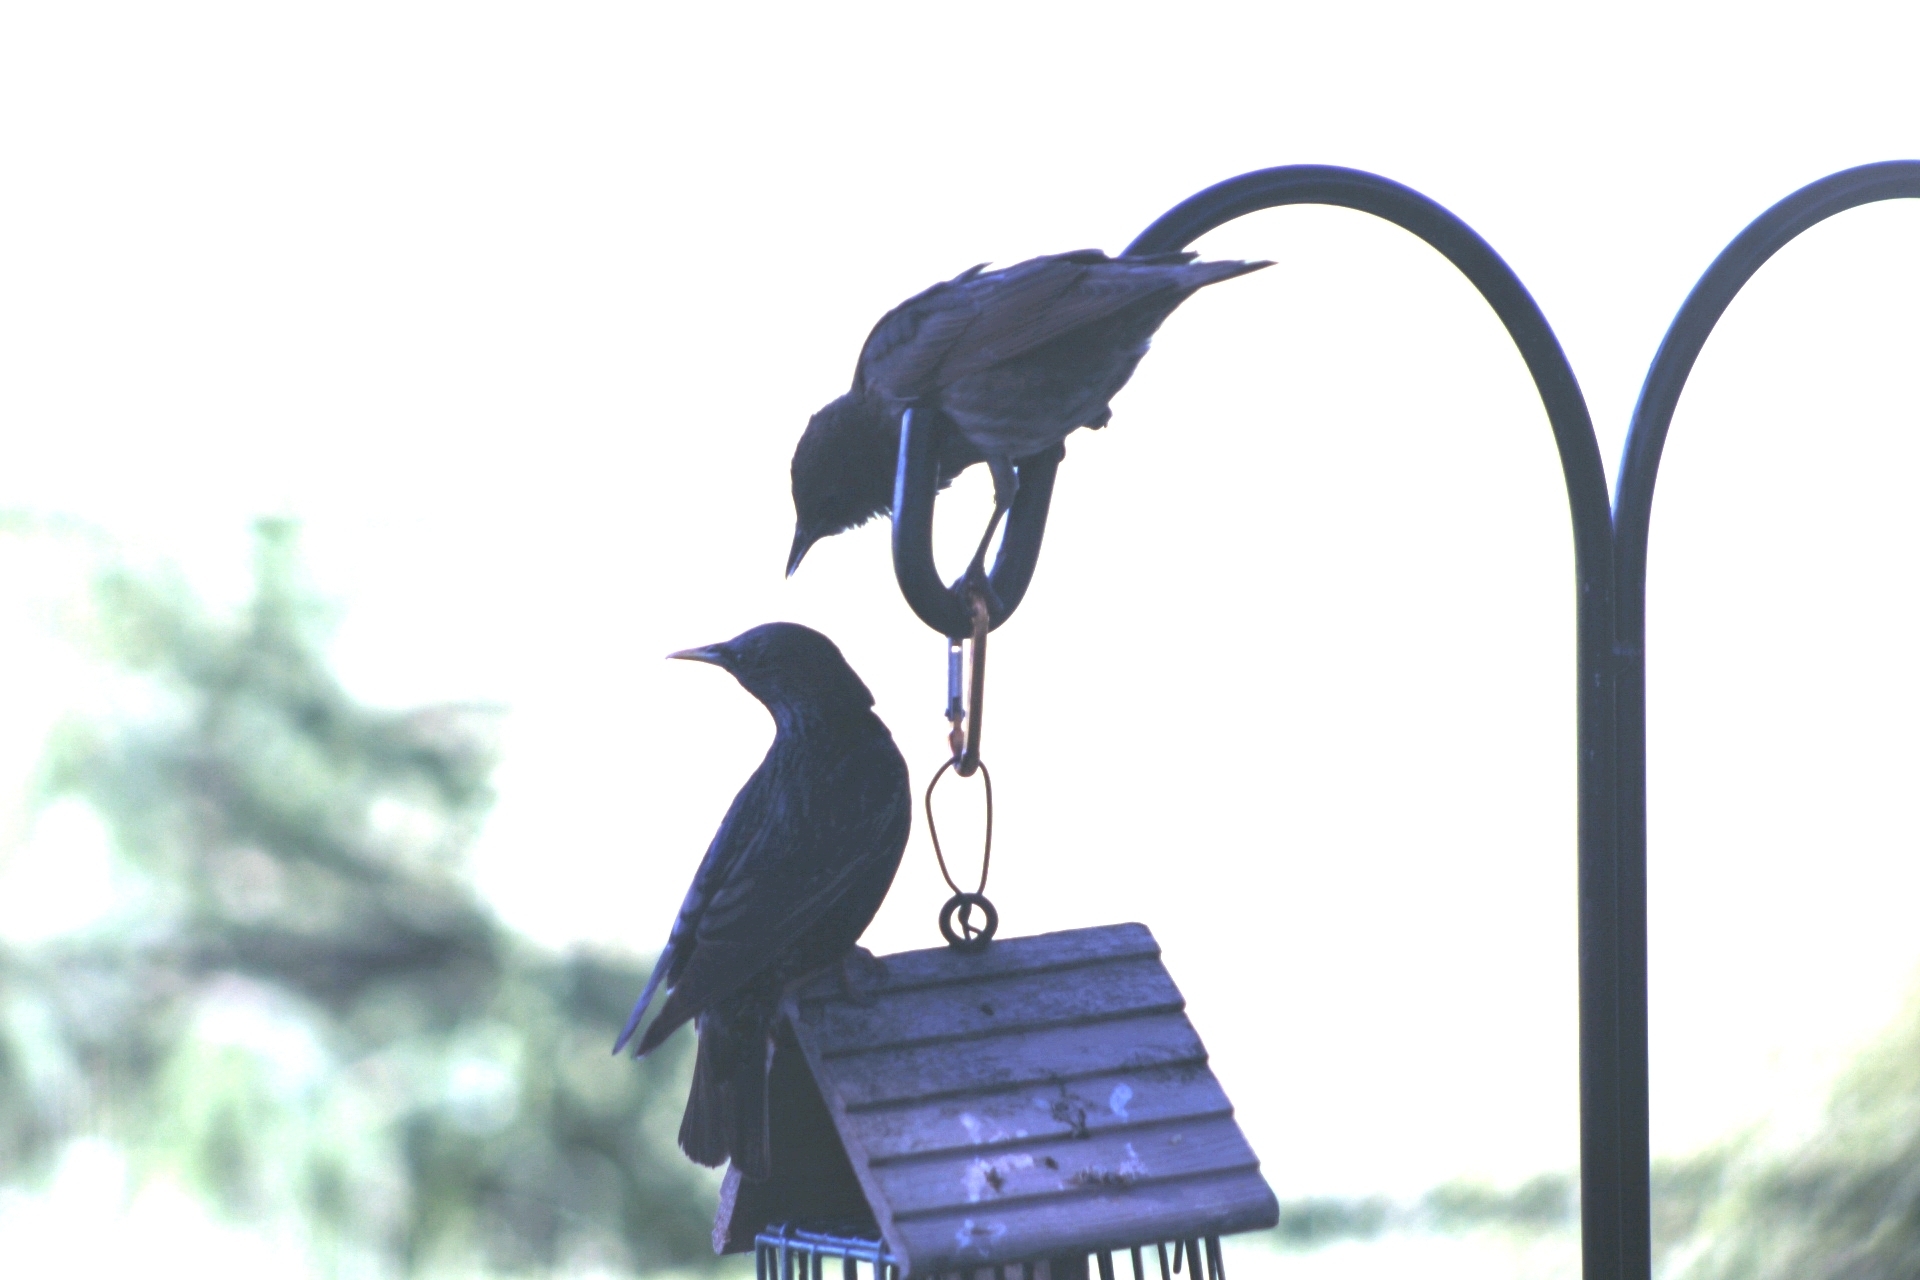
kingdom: Animalia
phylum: Chordata
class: Aves
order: Passeriformes
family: Sturnidae
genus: Sturnus
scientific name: Sturnus vulgaris
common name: Common starling
